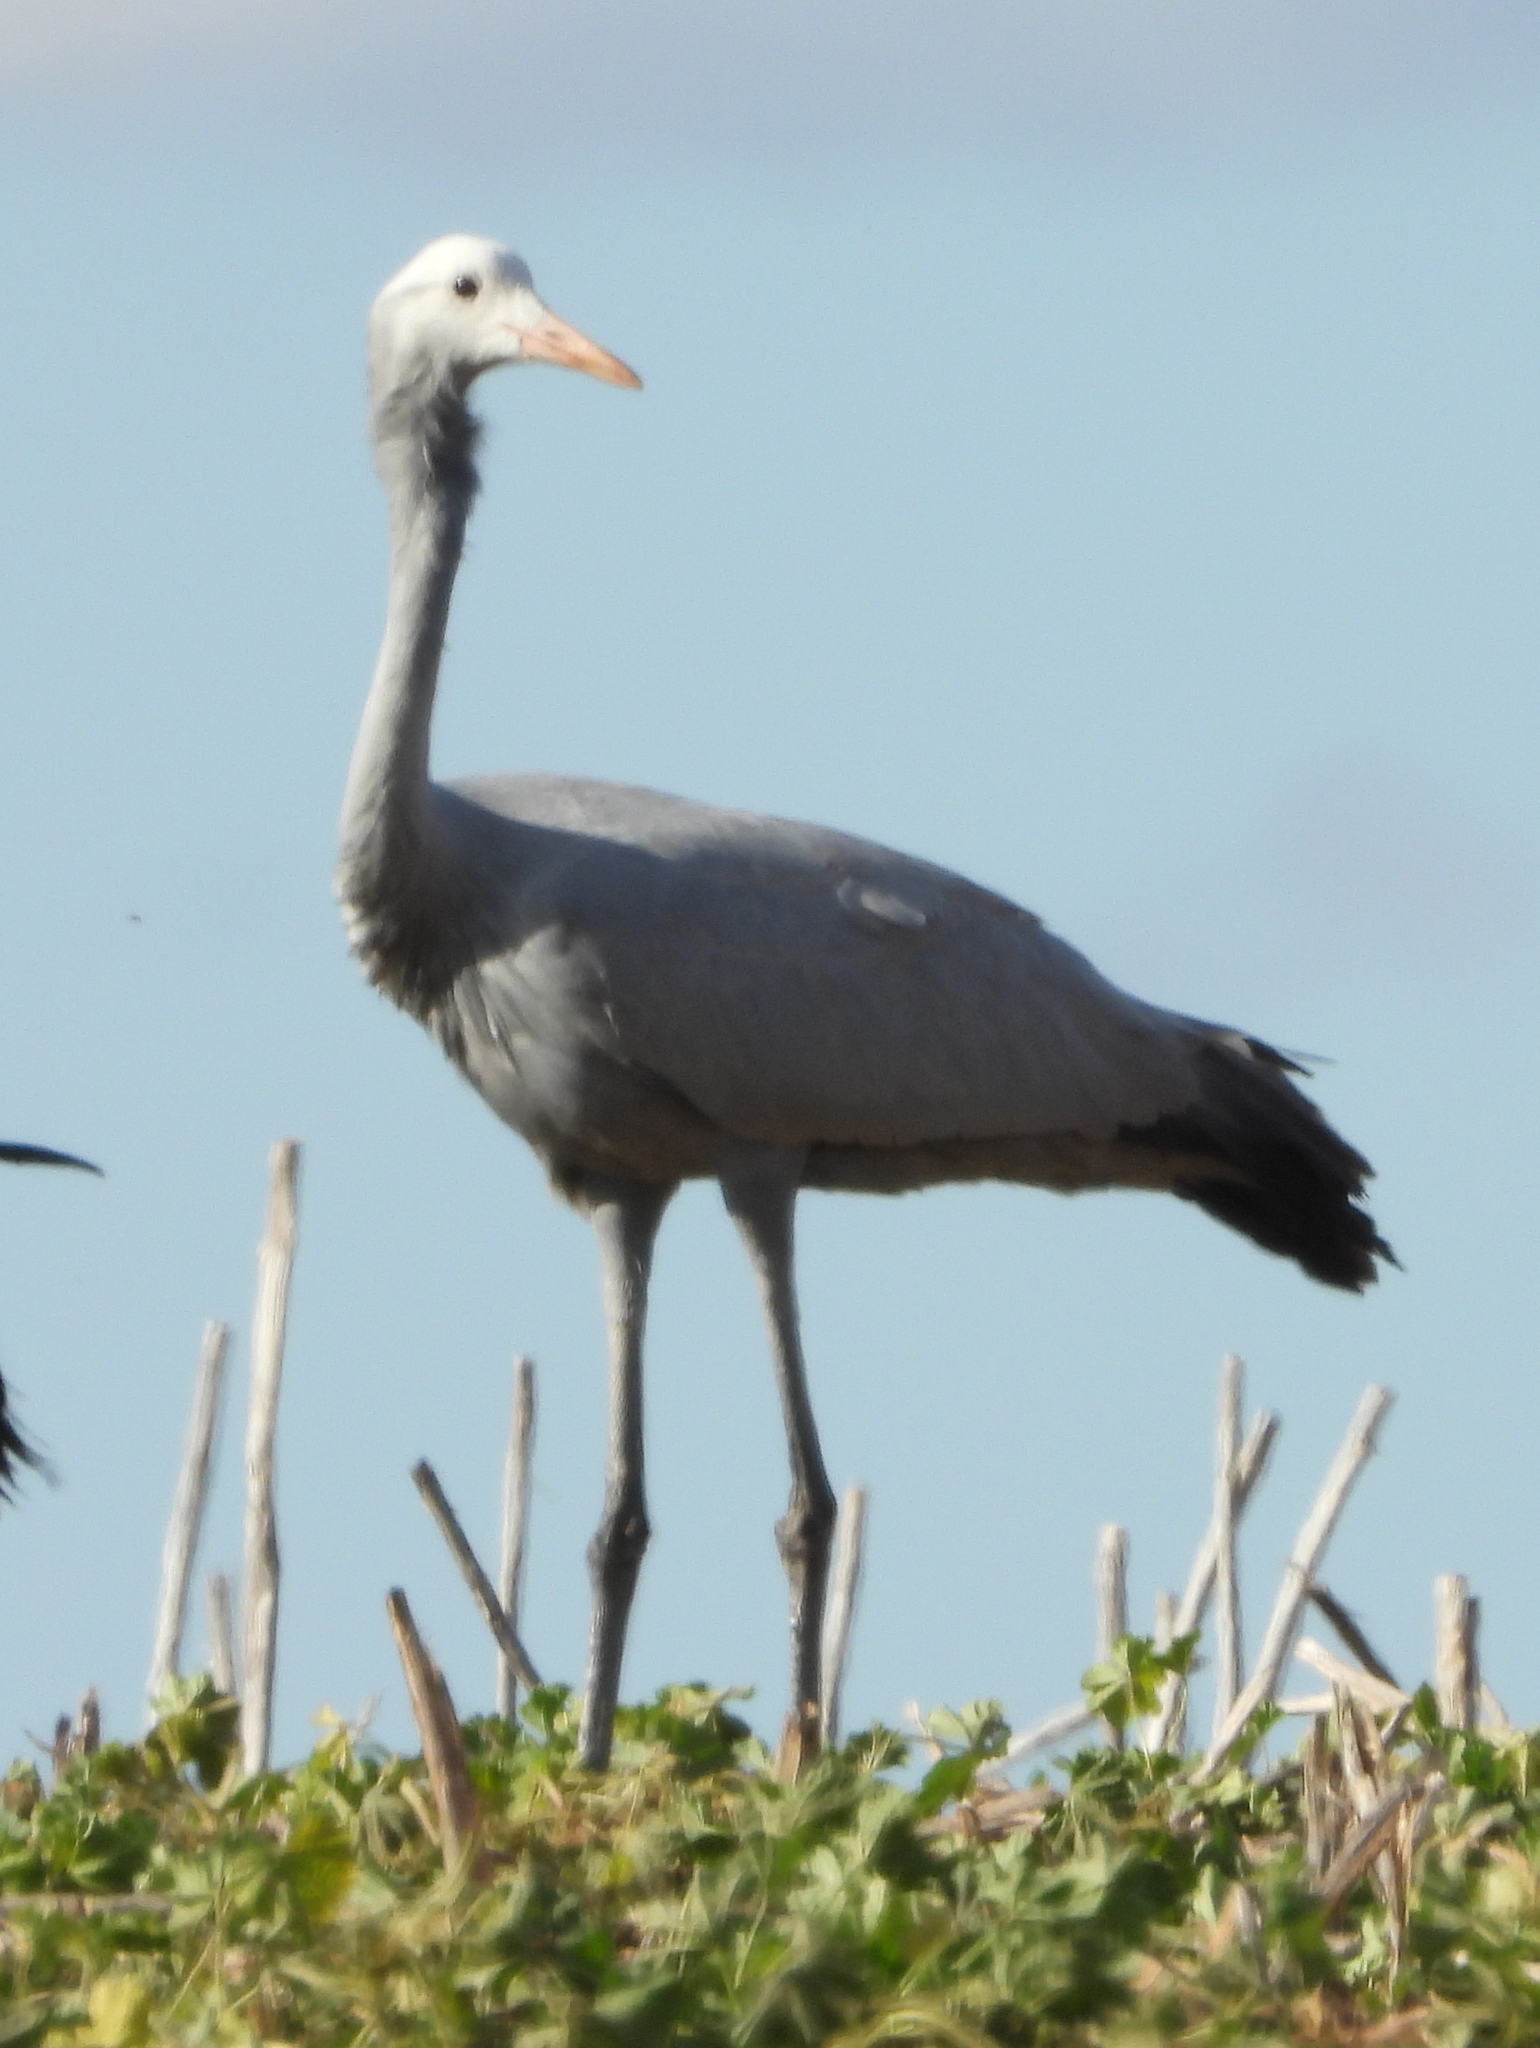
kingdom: Animalia
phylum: Chordata
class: Aves
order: Gruiformes
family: Gruidae
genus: Anthropoides
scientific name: Anthropoides paradiseus
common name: Blue crane
